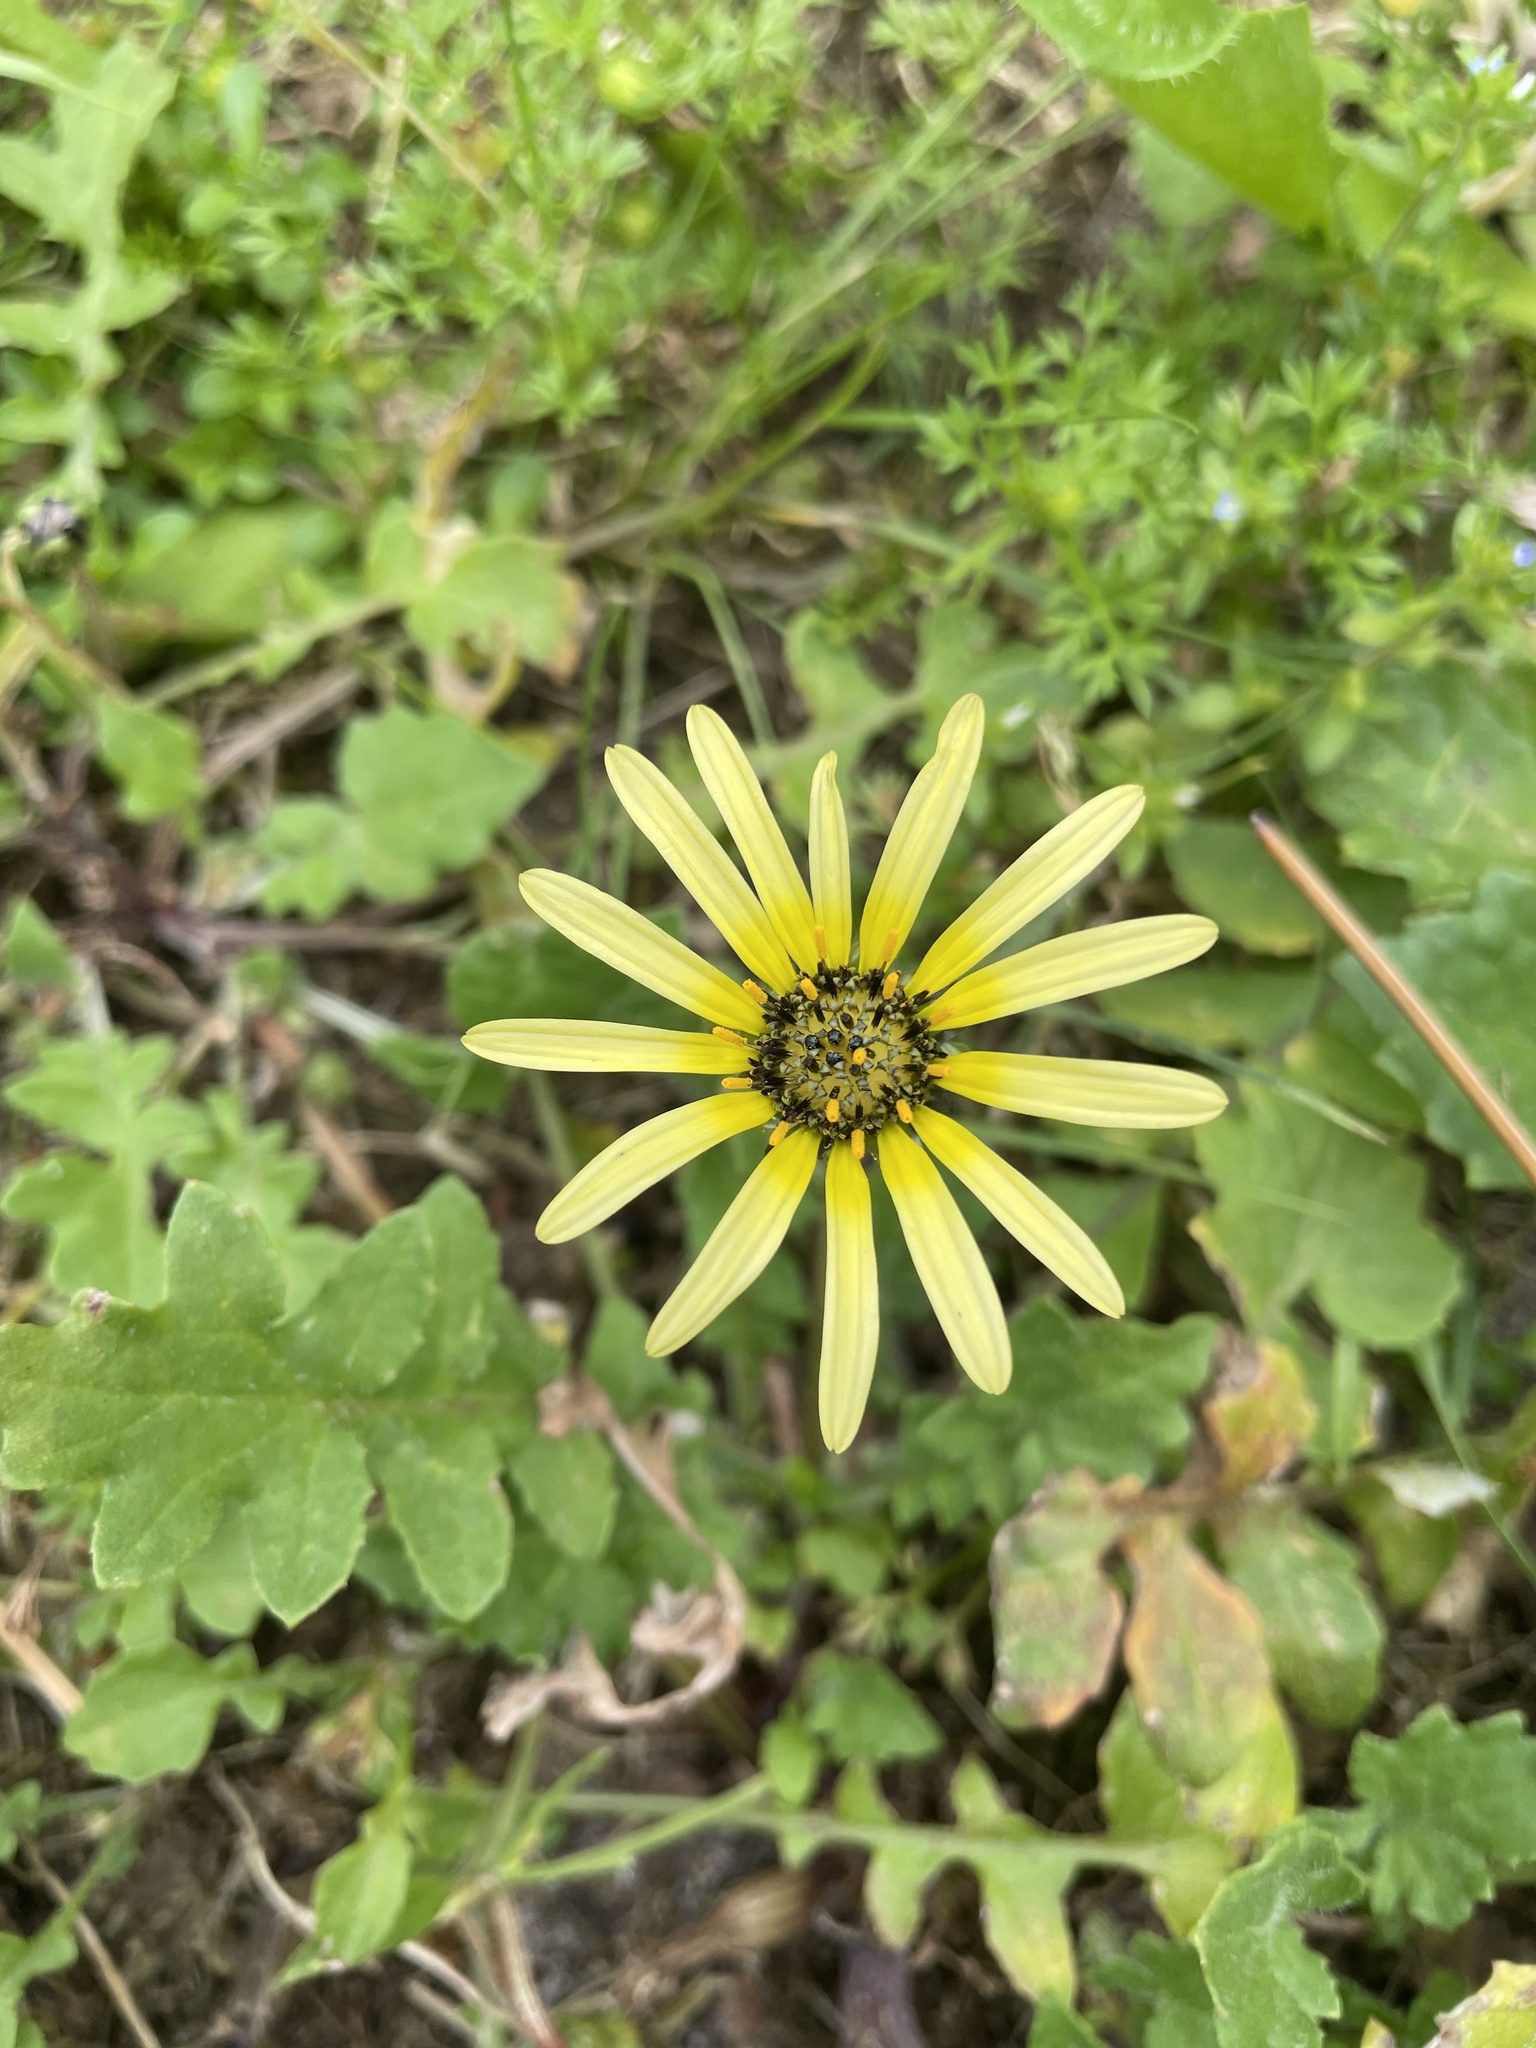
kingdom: Plantae
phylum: Tracheophyta
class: Magnoliopsida
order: Asterales
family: Asteraceae
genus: Arctotheca
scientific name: Arctotheca calendula
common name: Capeweed
